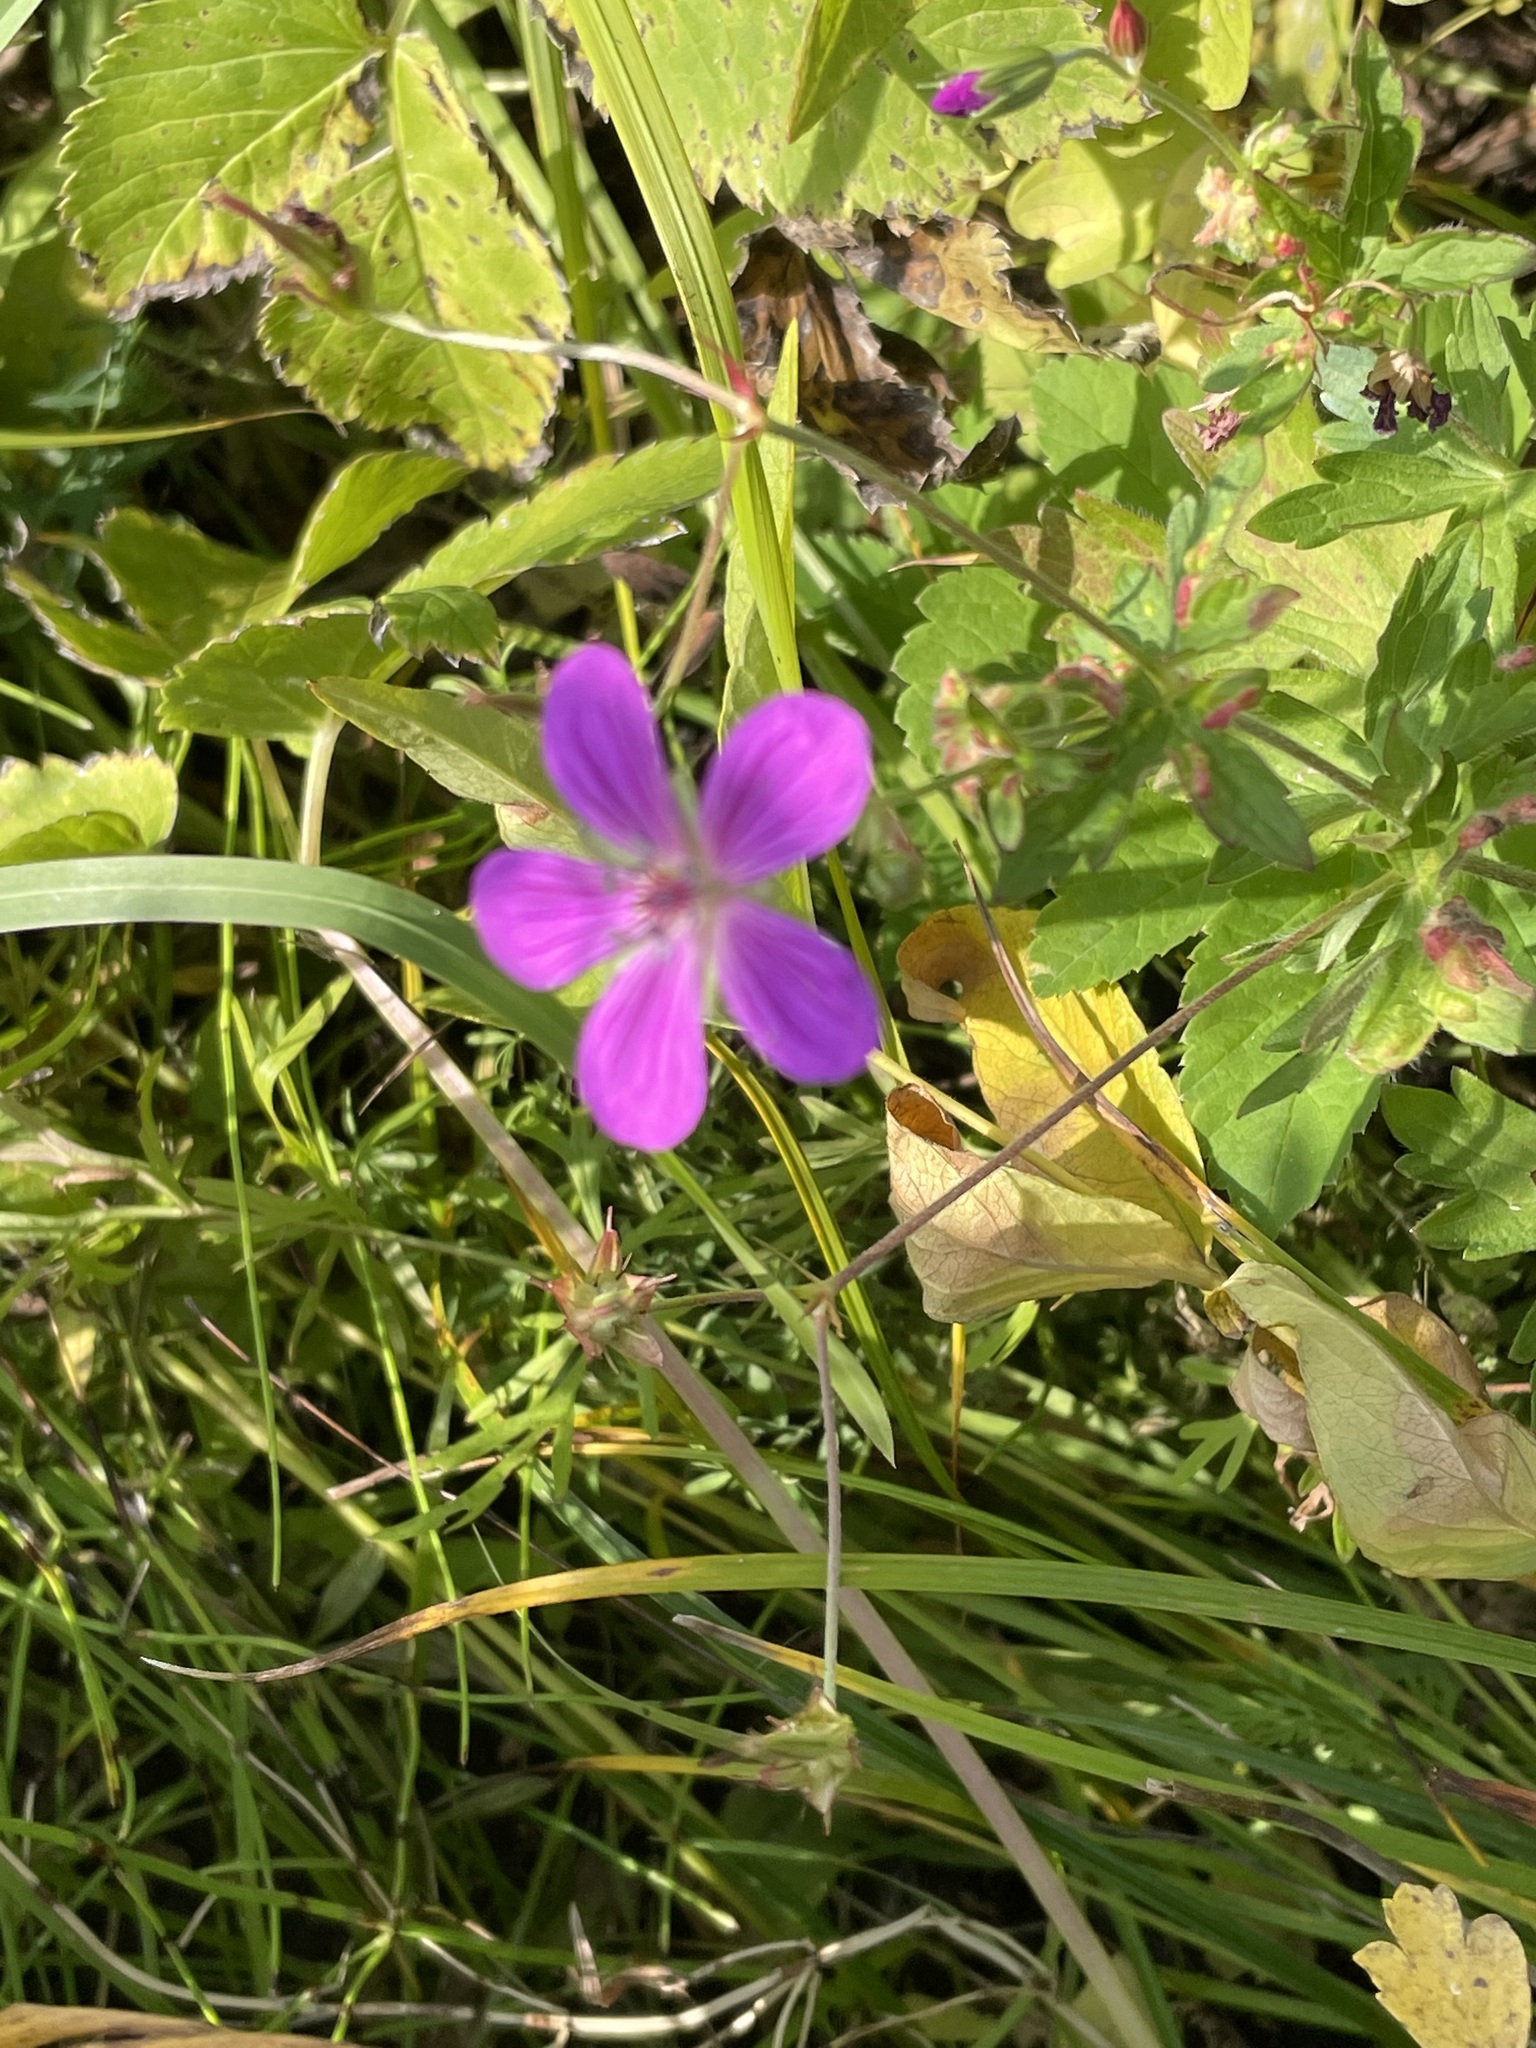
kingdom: Plantae
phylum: Tracheophyta
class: Magnoliopsida
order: Geraniales
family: Geraniaceae
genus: Geranium
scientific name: Geranium palustre
